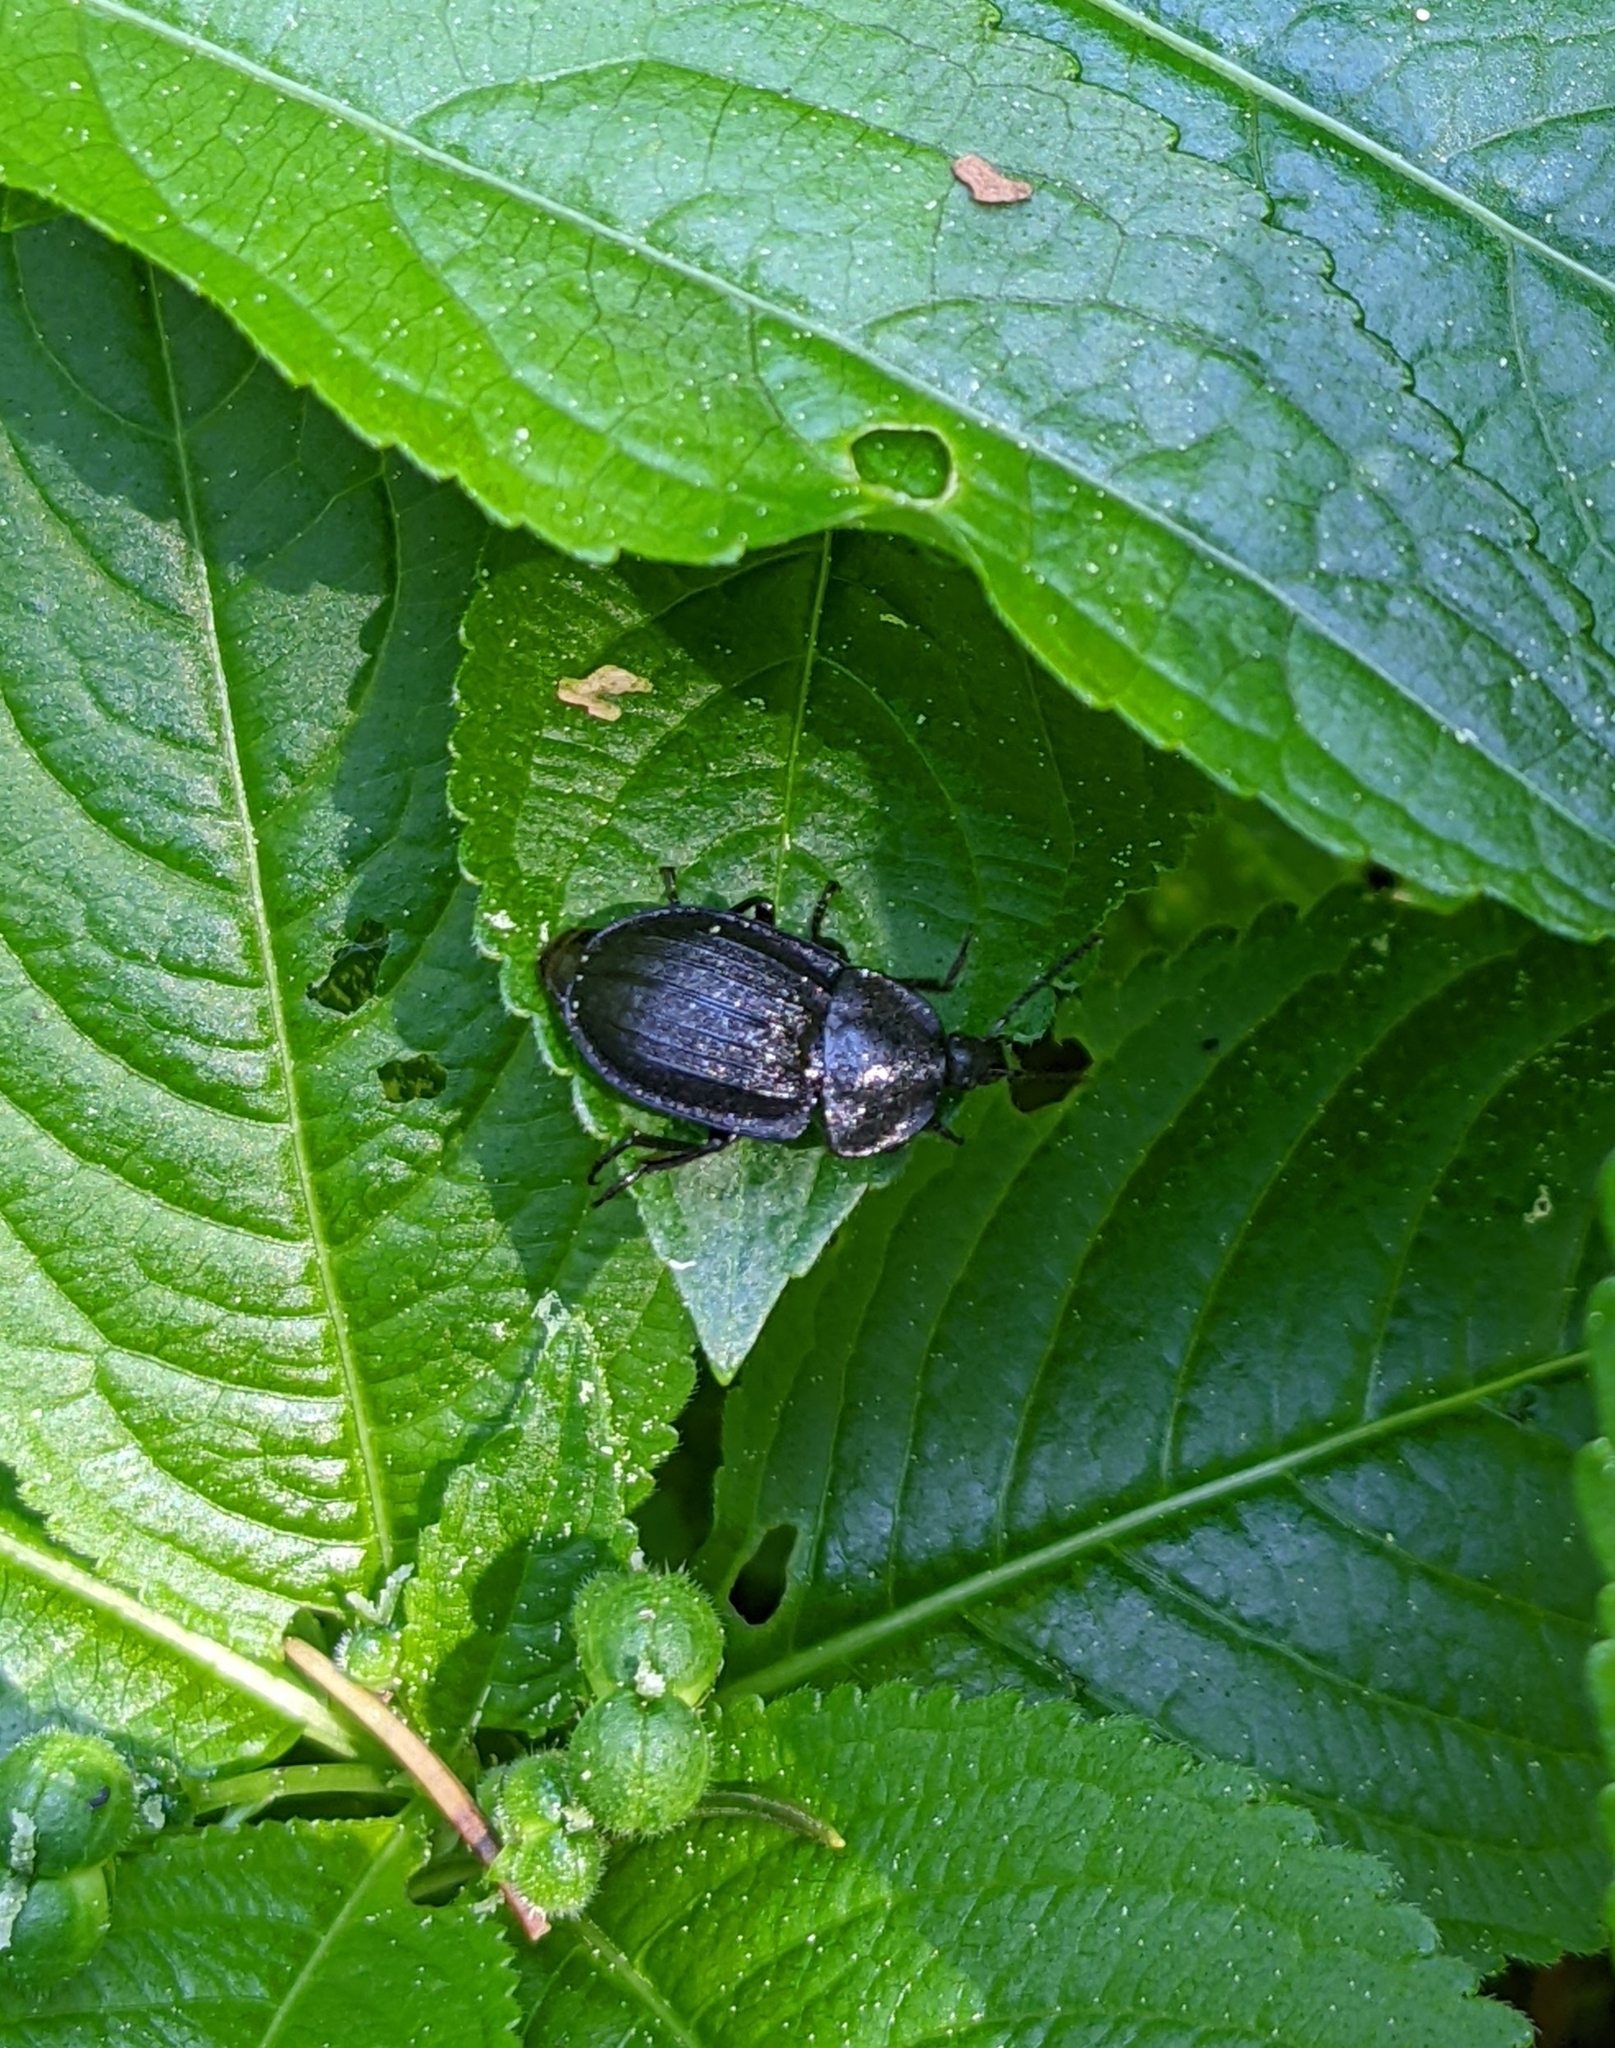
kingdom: Animalia
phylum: Arthropoda
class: Insecta
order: Coleoptera
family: Staphylinidae
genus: Silpha
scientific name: Silpha atrata
